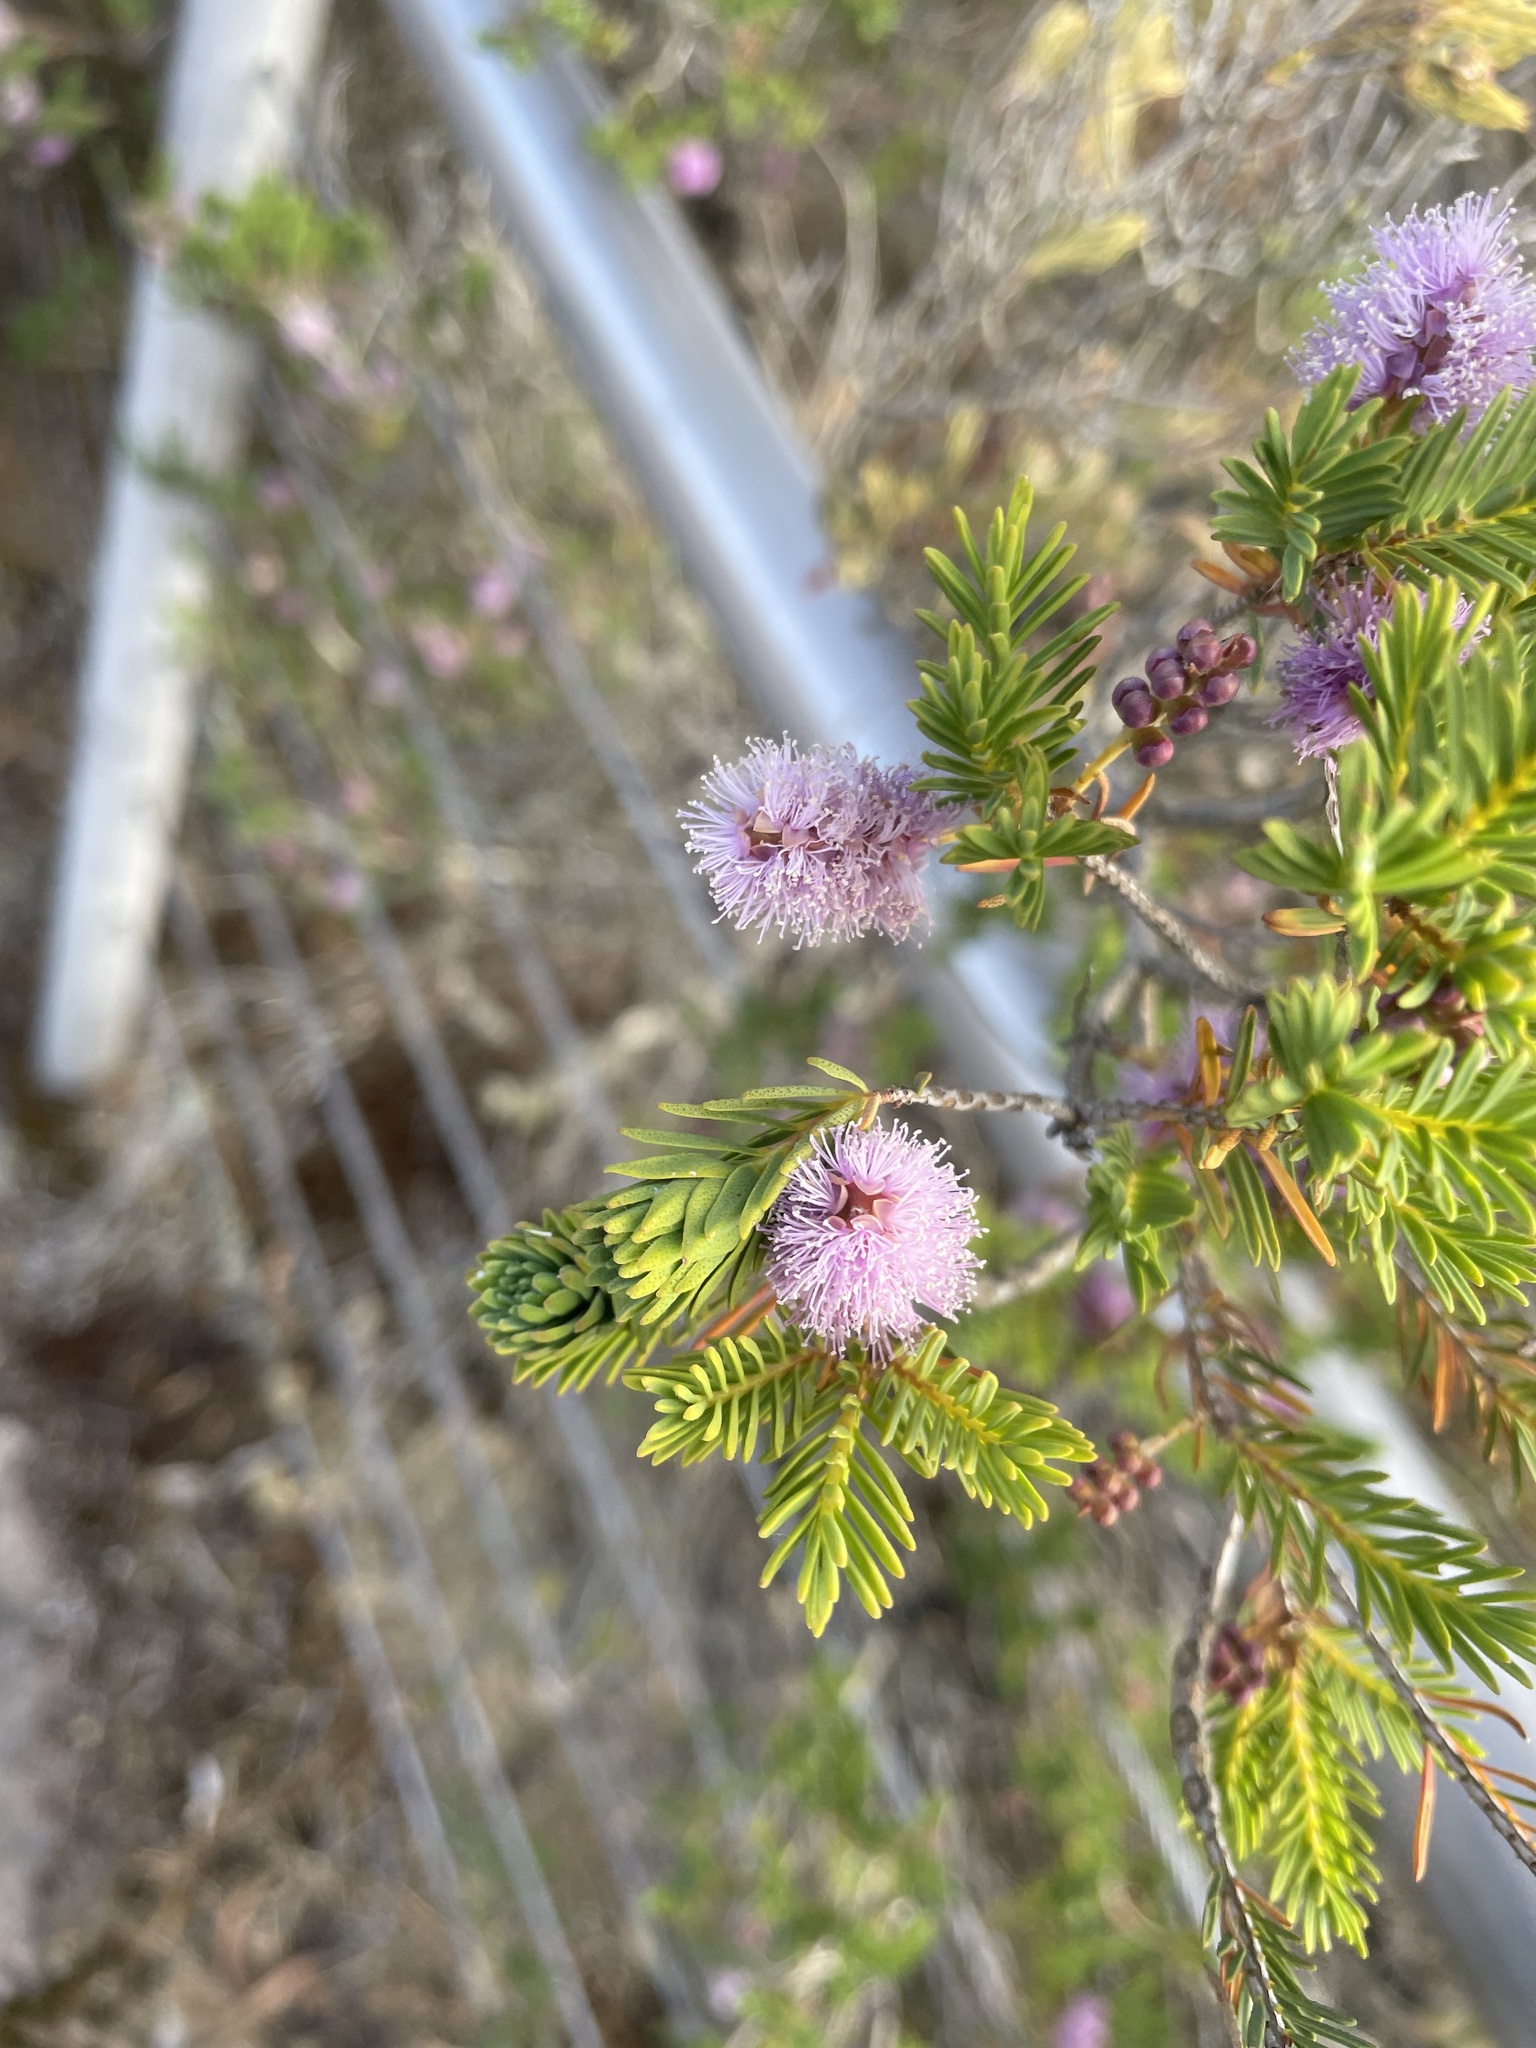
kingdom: Plantae
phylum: Tracheophyta
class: Magnoliopsida
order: Myrtales
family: Myrtaceae
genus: Melaleuca
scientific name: Melaleuca decussata
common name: Cross-leaf honey myrtle
